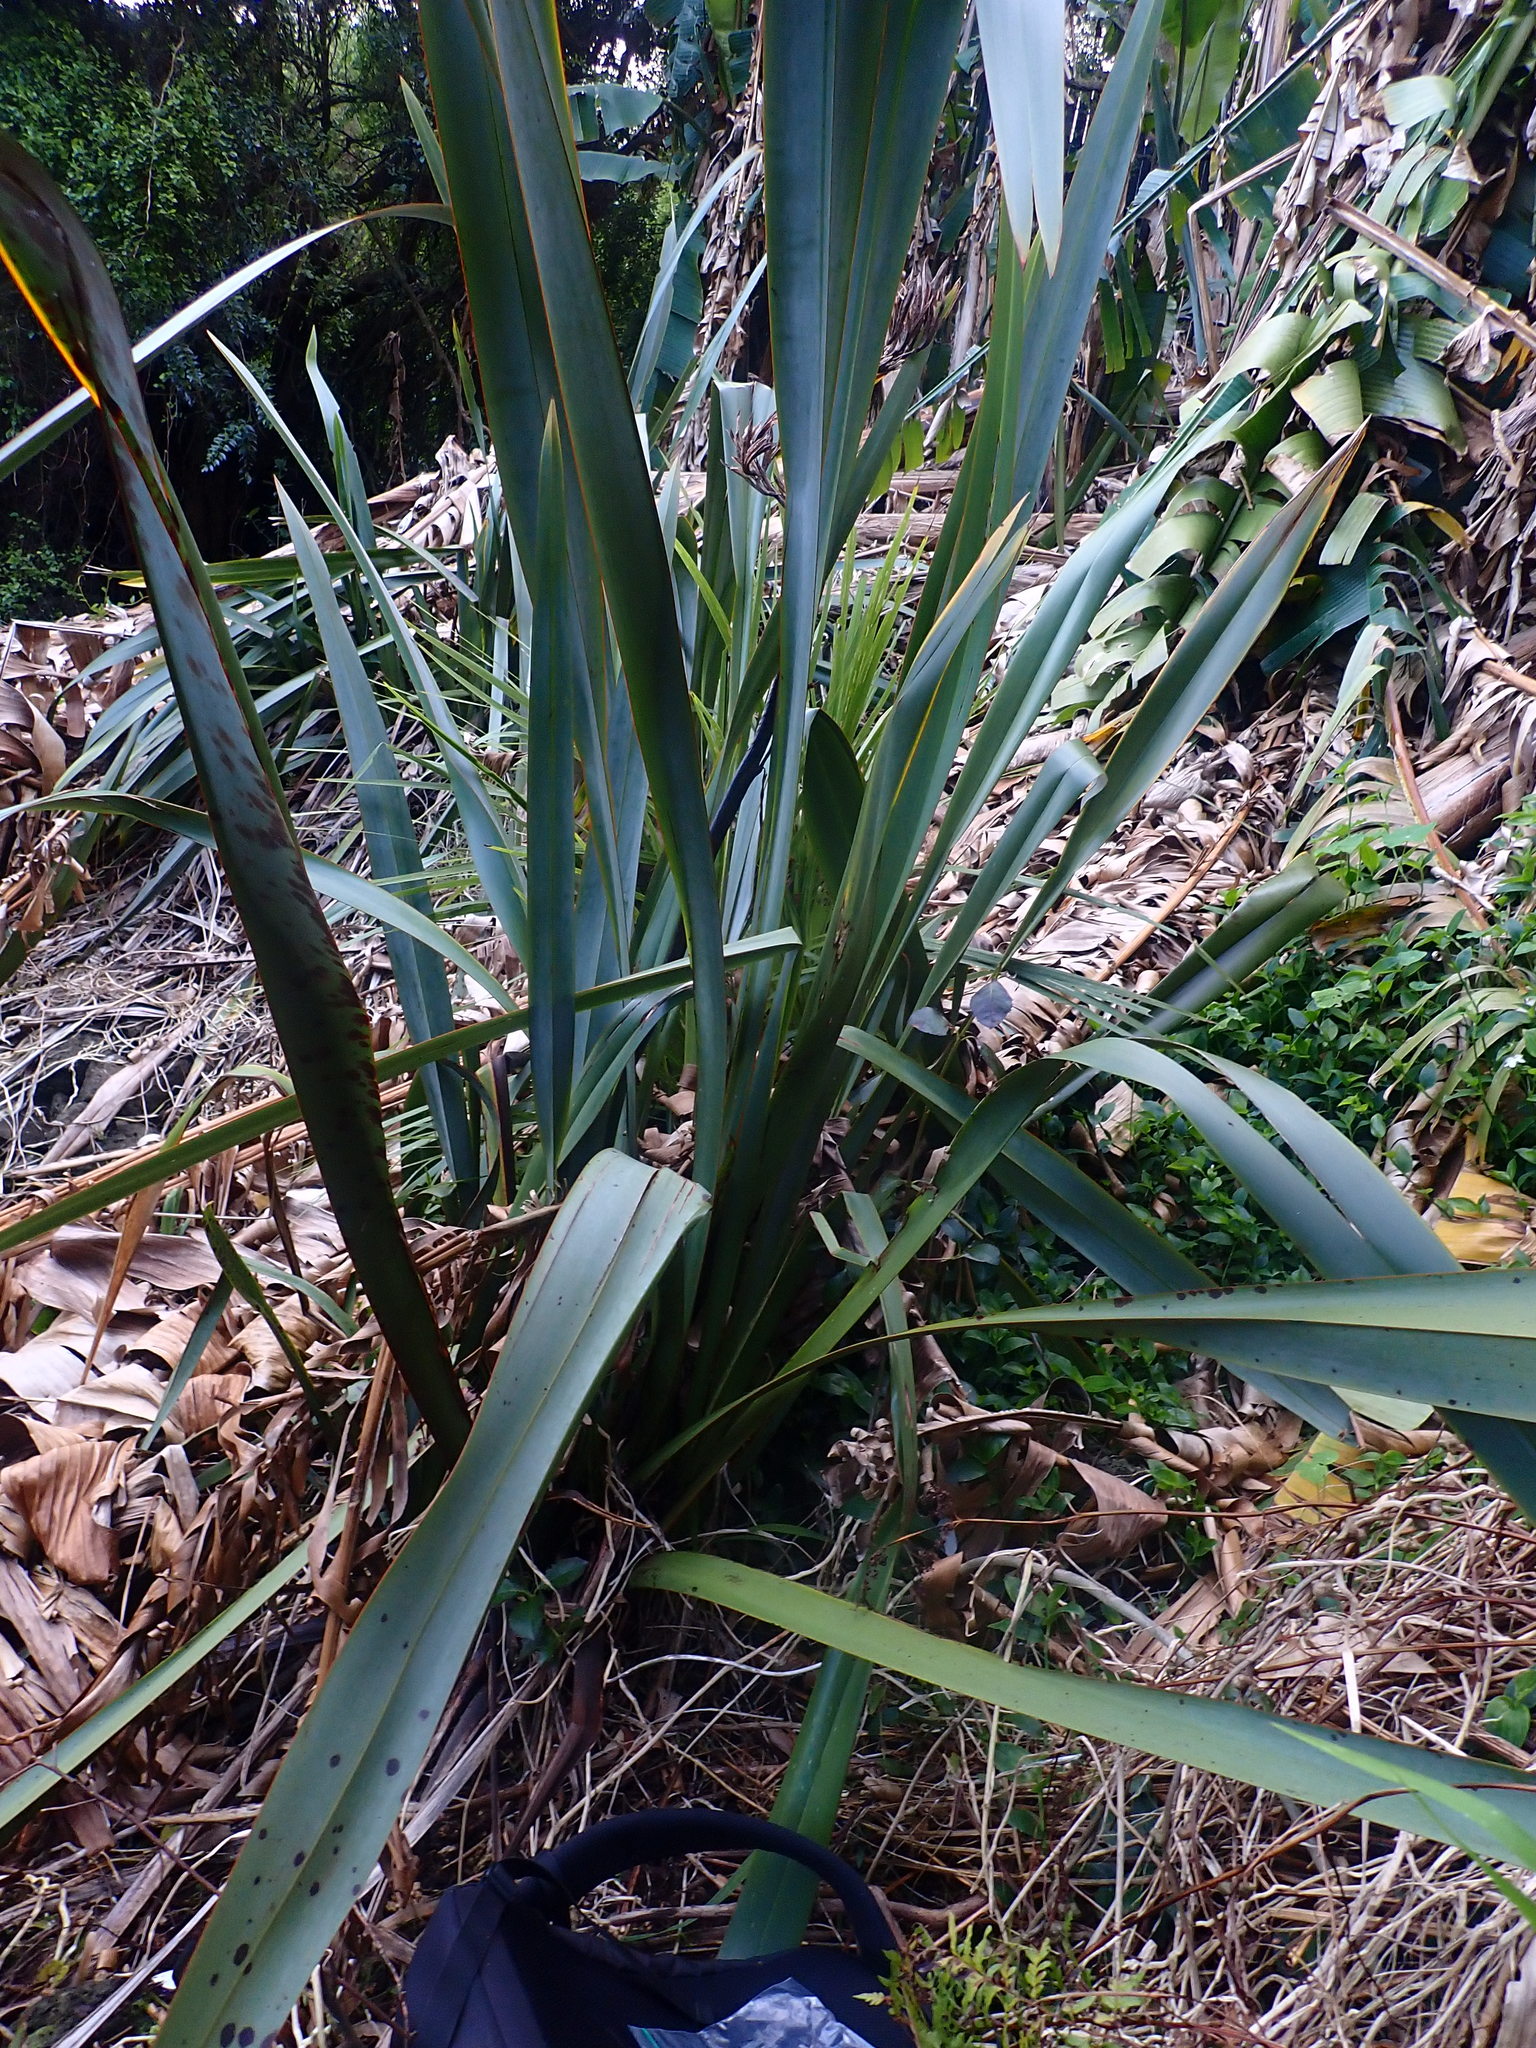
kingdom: Plantae
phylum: Tracheophyta
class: Liliopsida
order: Asparagales
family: Asphodelaceae
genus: Phormium
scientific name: Phormium tenax
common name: New zealand flax
